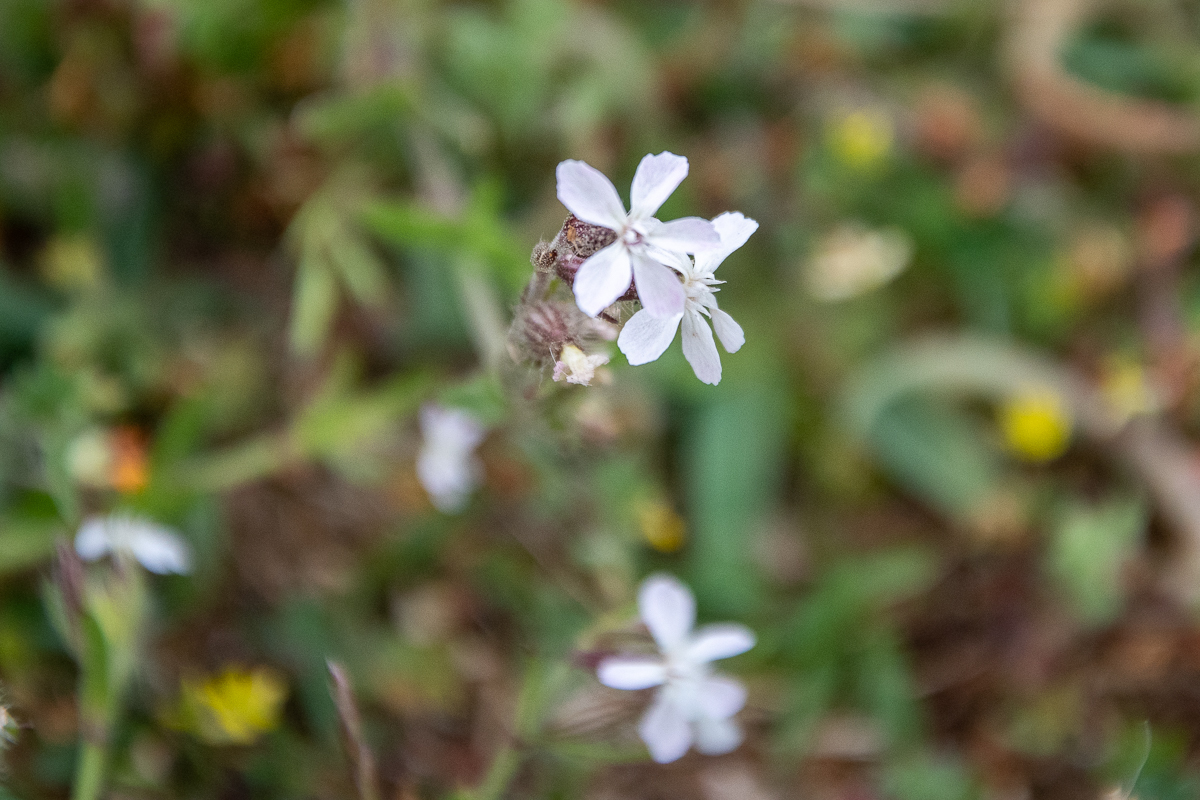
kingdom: Plantae
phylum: Tracheophyta
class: Magnoliopsida
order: Caryophyllales
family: Caryophyllaceae
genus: Silene
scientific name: Silene gallica
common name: Small-flowered catchfly
